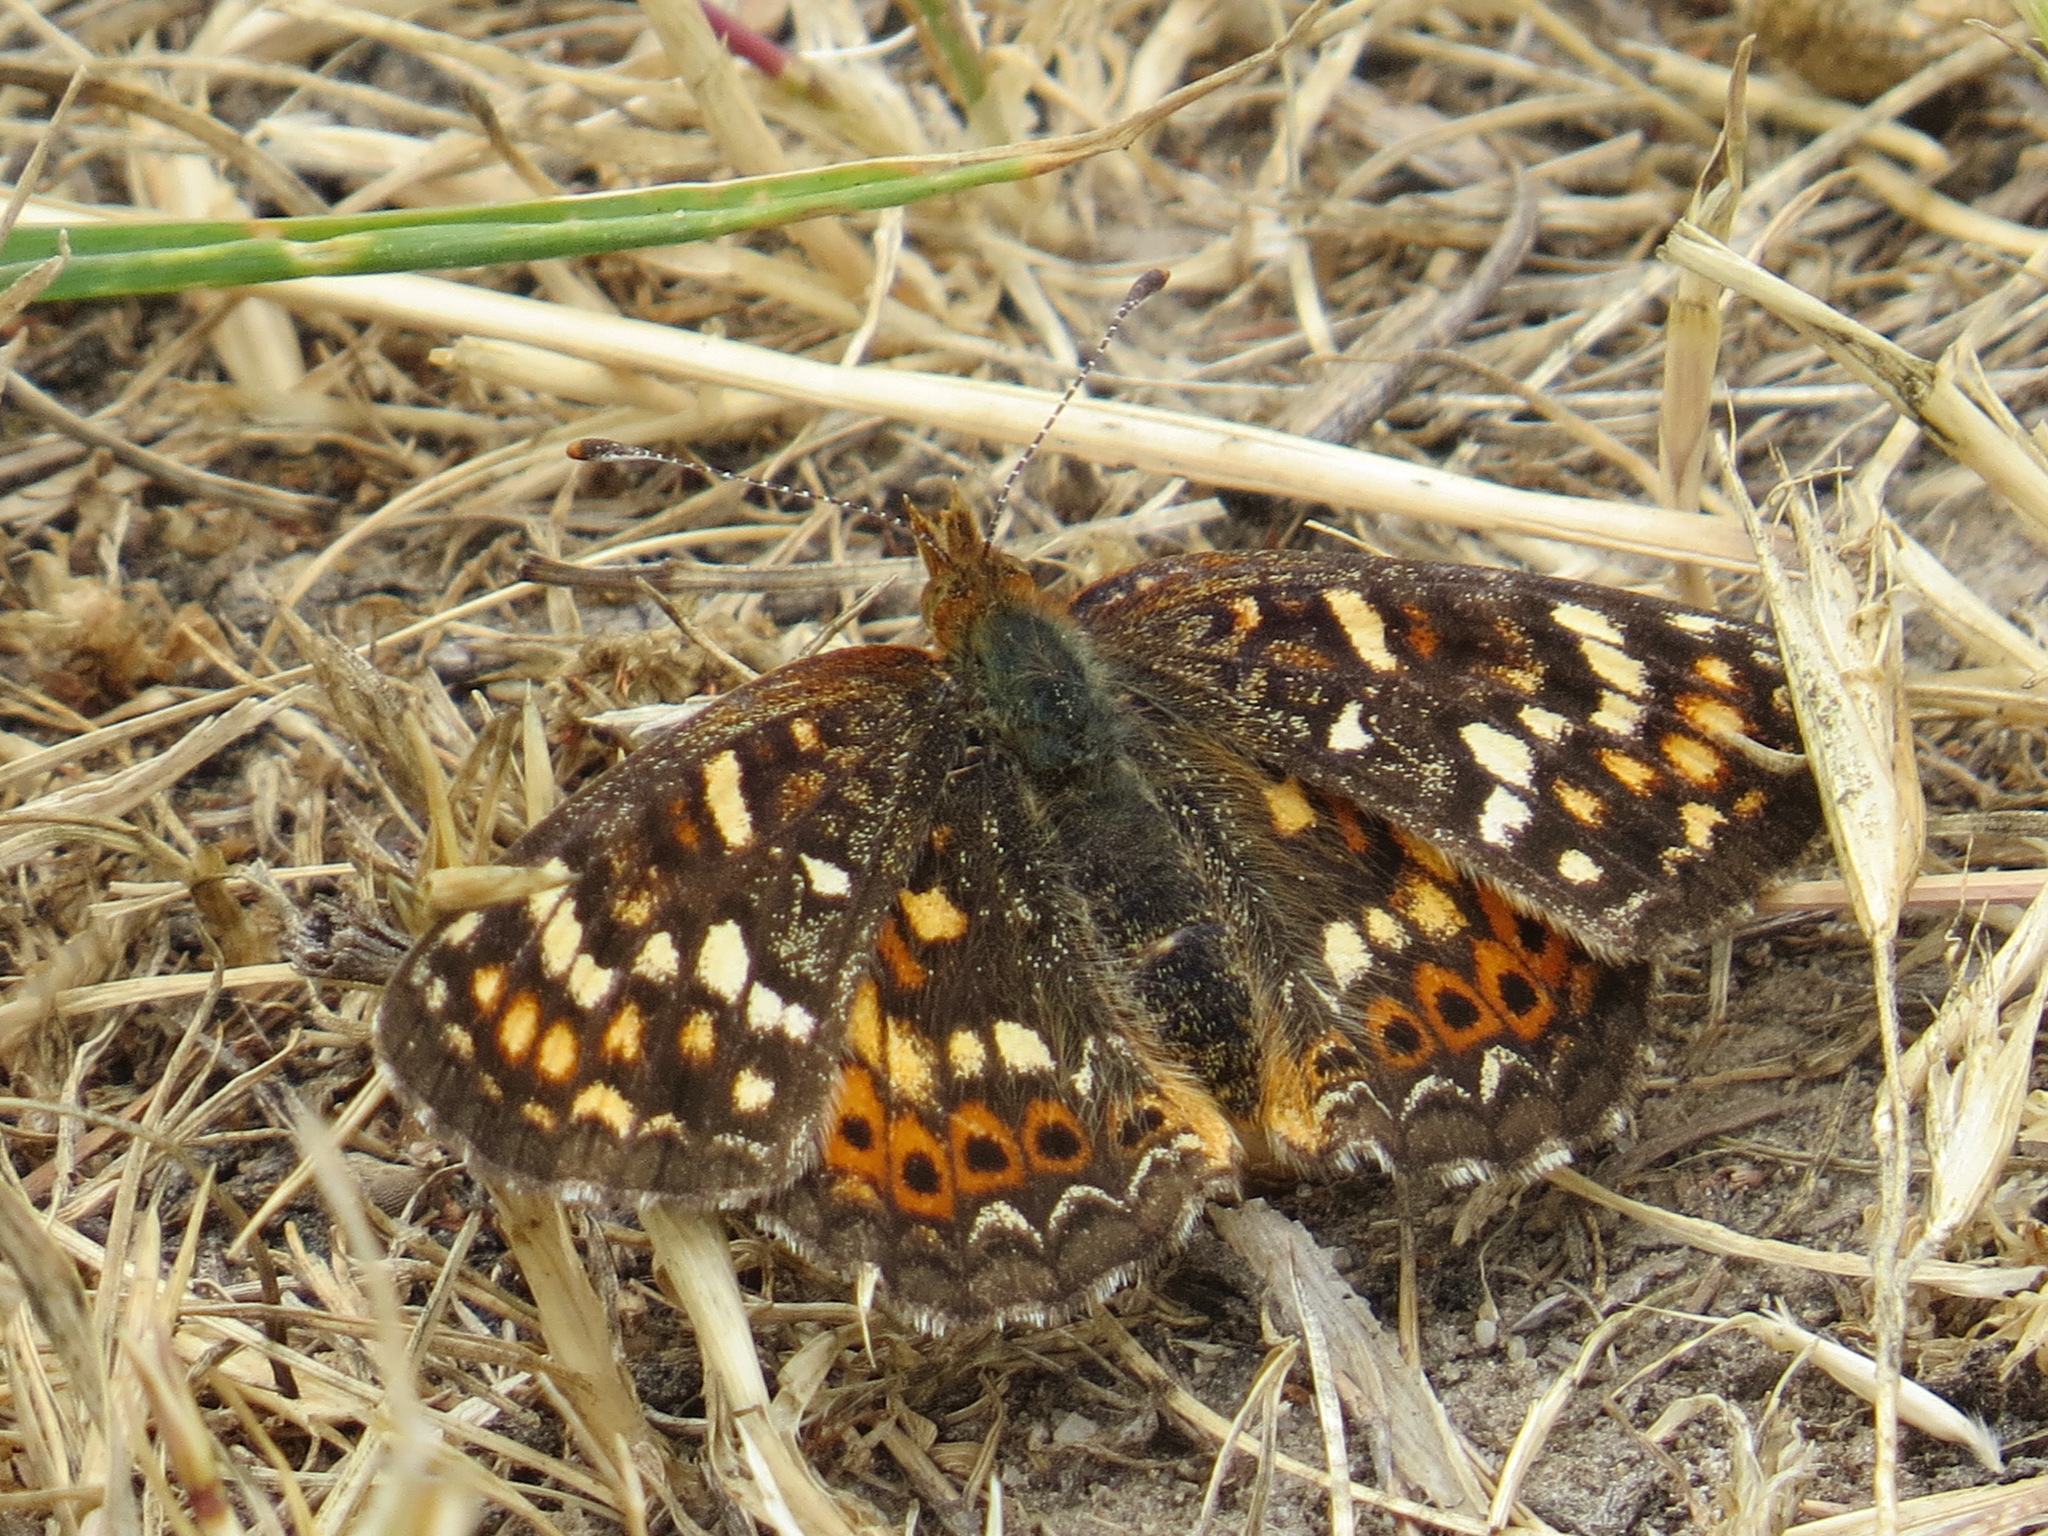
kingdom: Animalia
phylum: Arthropoda
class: Insecta
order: Lepidoptera
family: Nymphalidae
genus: Phyciodes
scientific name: Phyciodes tharos
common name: Pearl crescent
